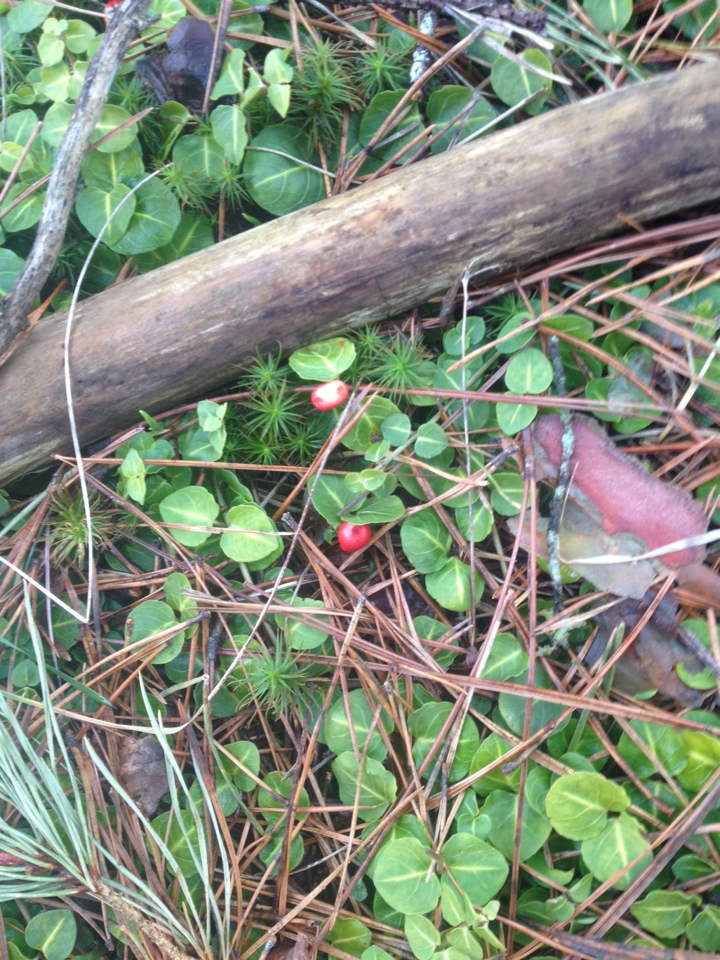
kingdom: Plantae
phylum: Tracheophyta
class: Magnoliopsida
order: Gentianales
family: Rubiaceae
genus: Mitchella
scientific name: Mitchella repens
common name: Partridge-berry
